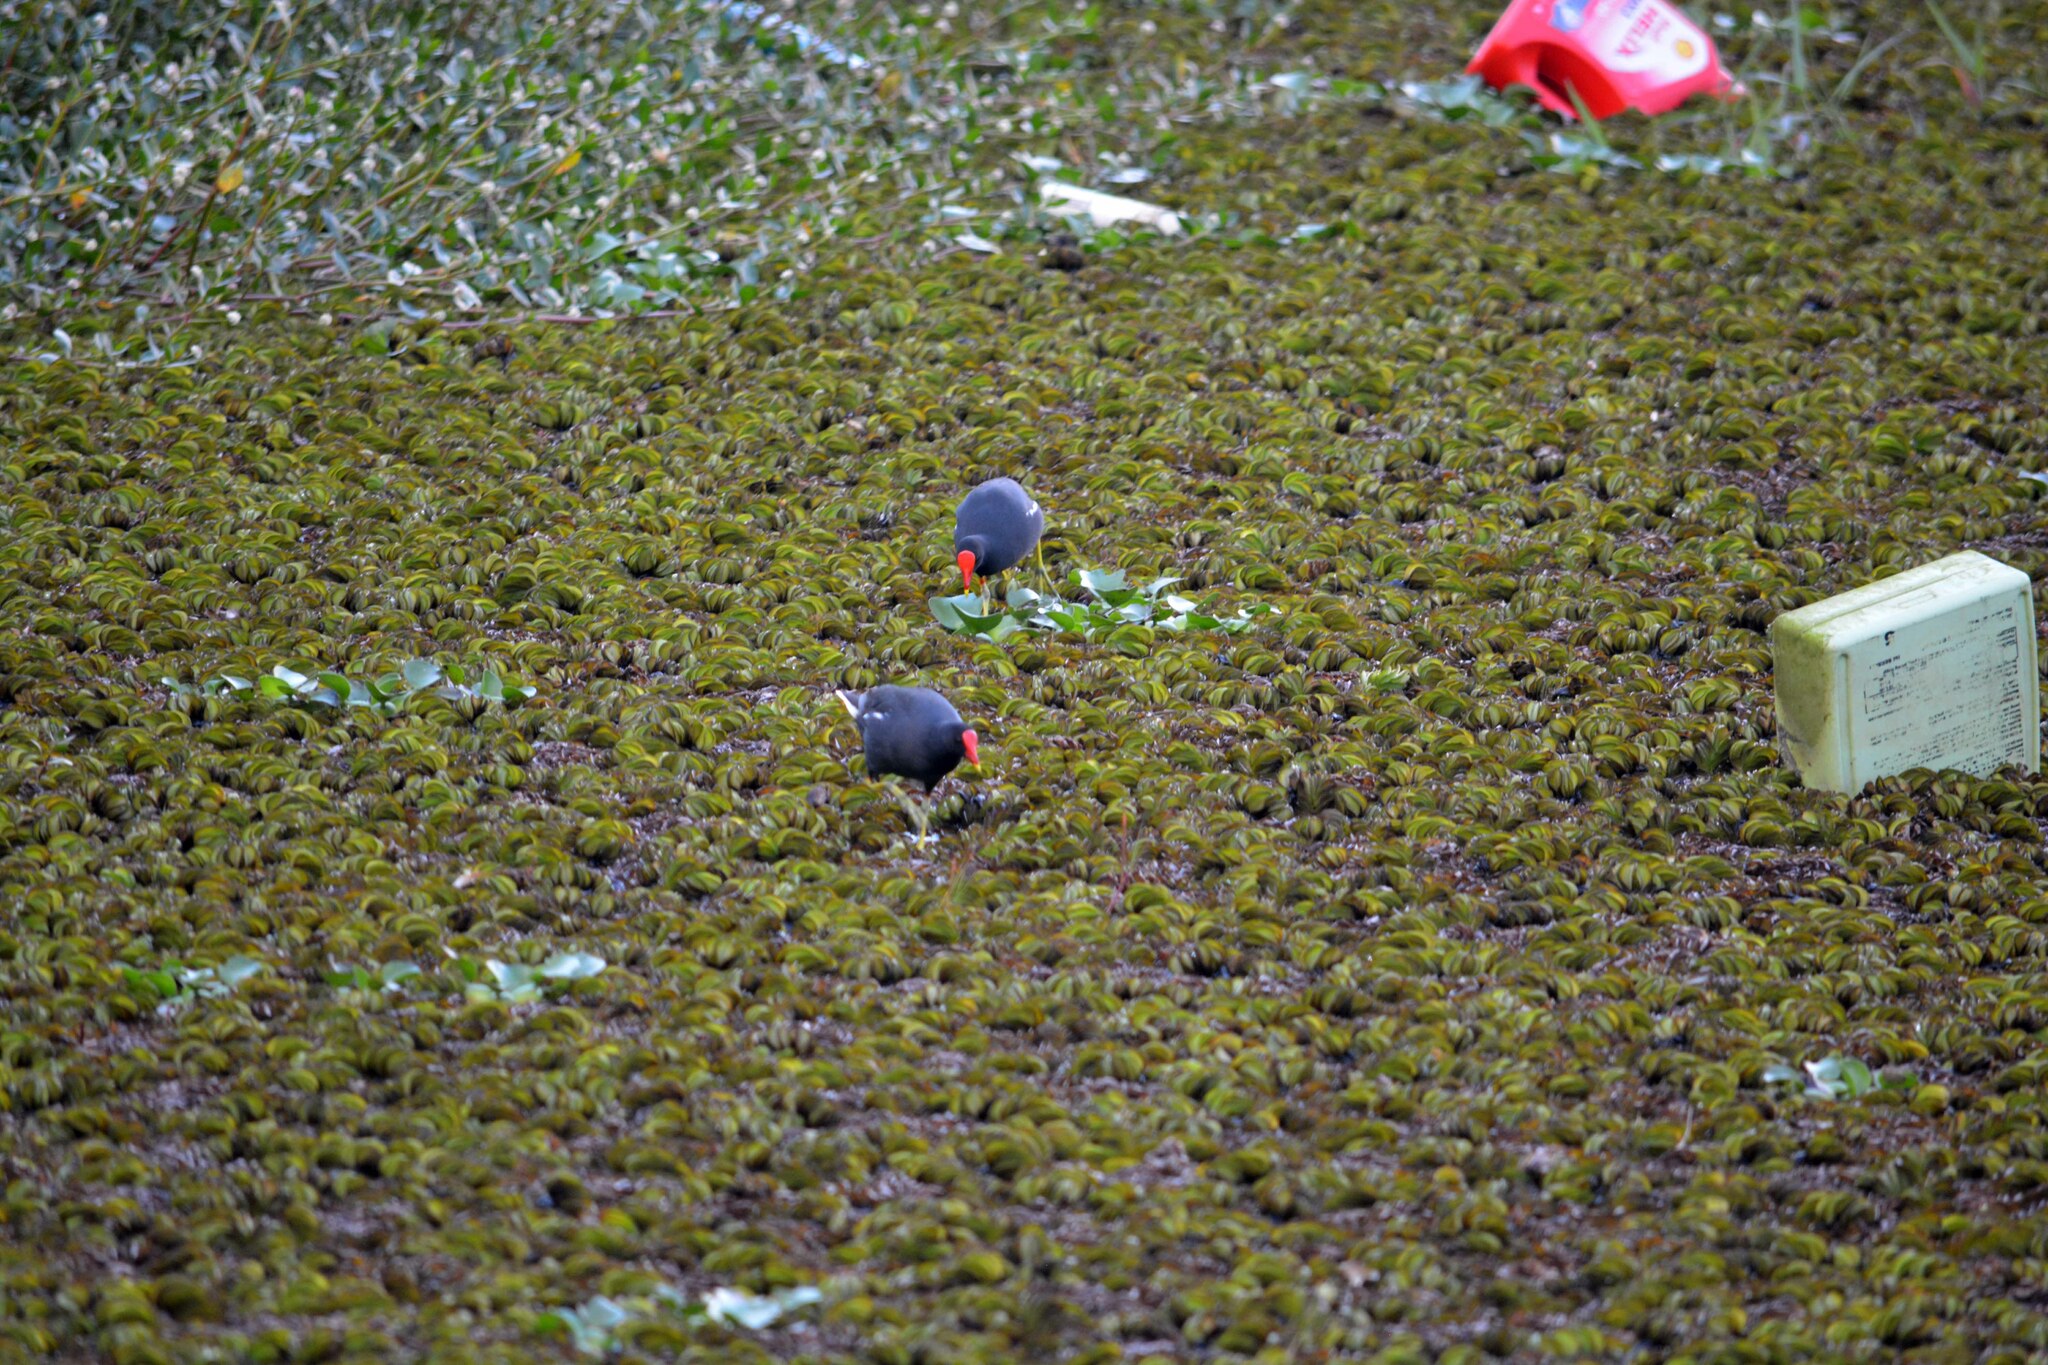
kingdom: Animalia
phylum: Chordata
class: Aves
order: Gruiformes
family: Rallidae
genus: Gallinula
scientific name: Gallinula chloropus
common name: Common moorhen
